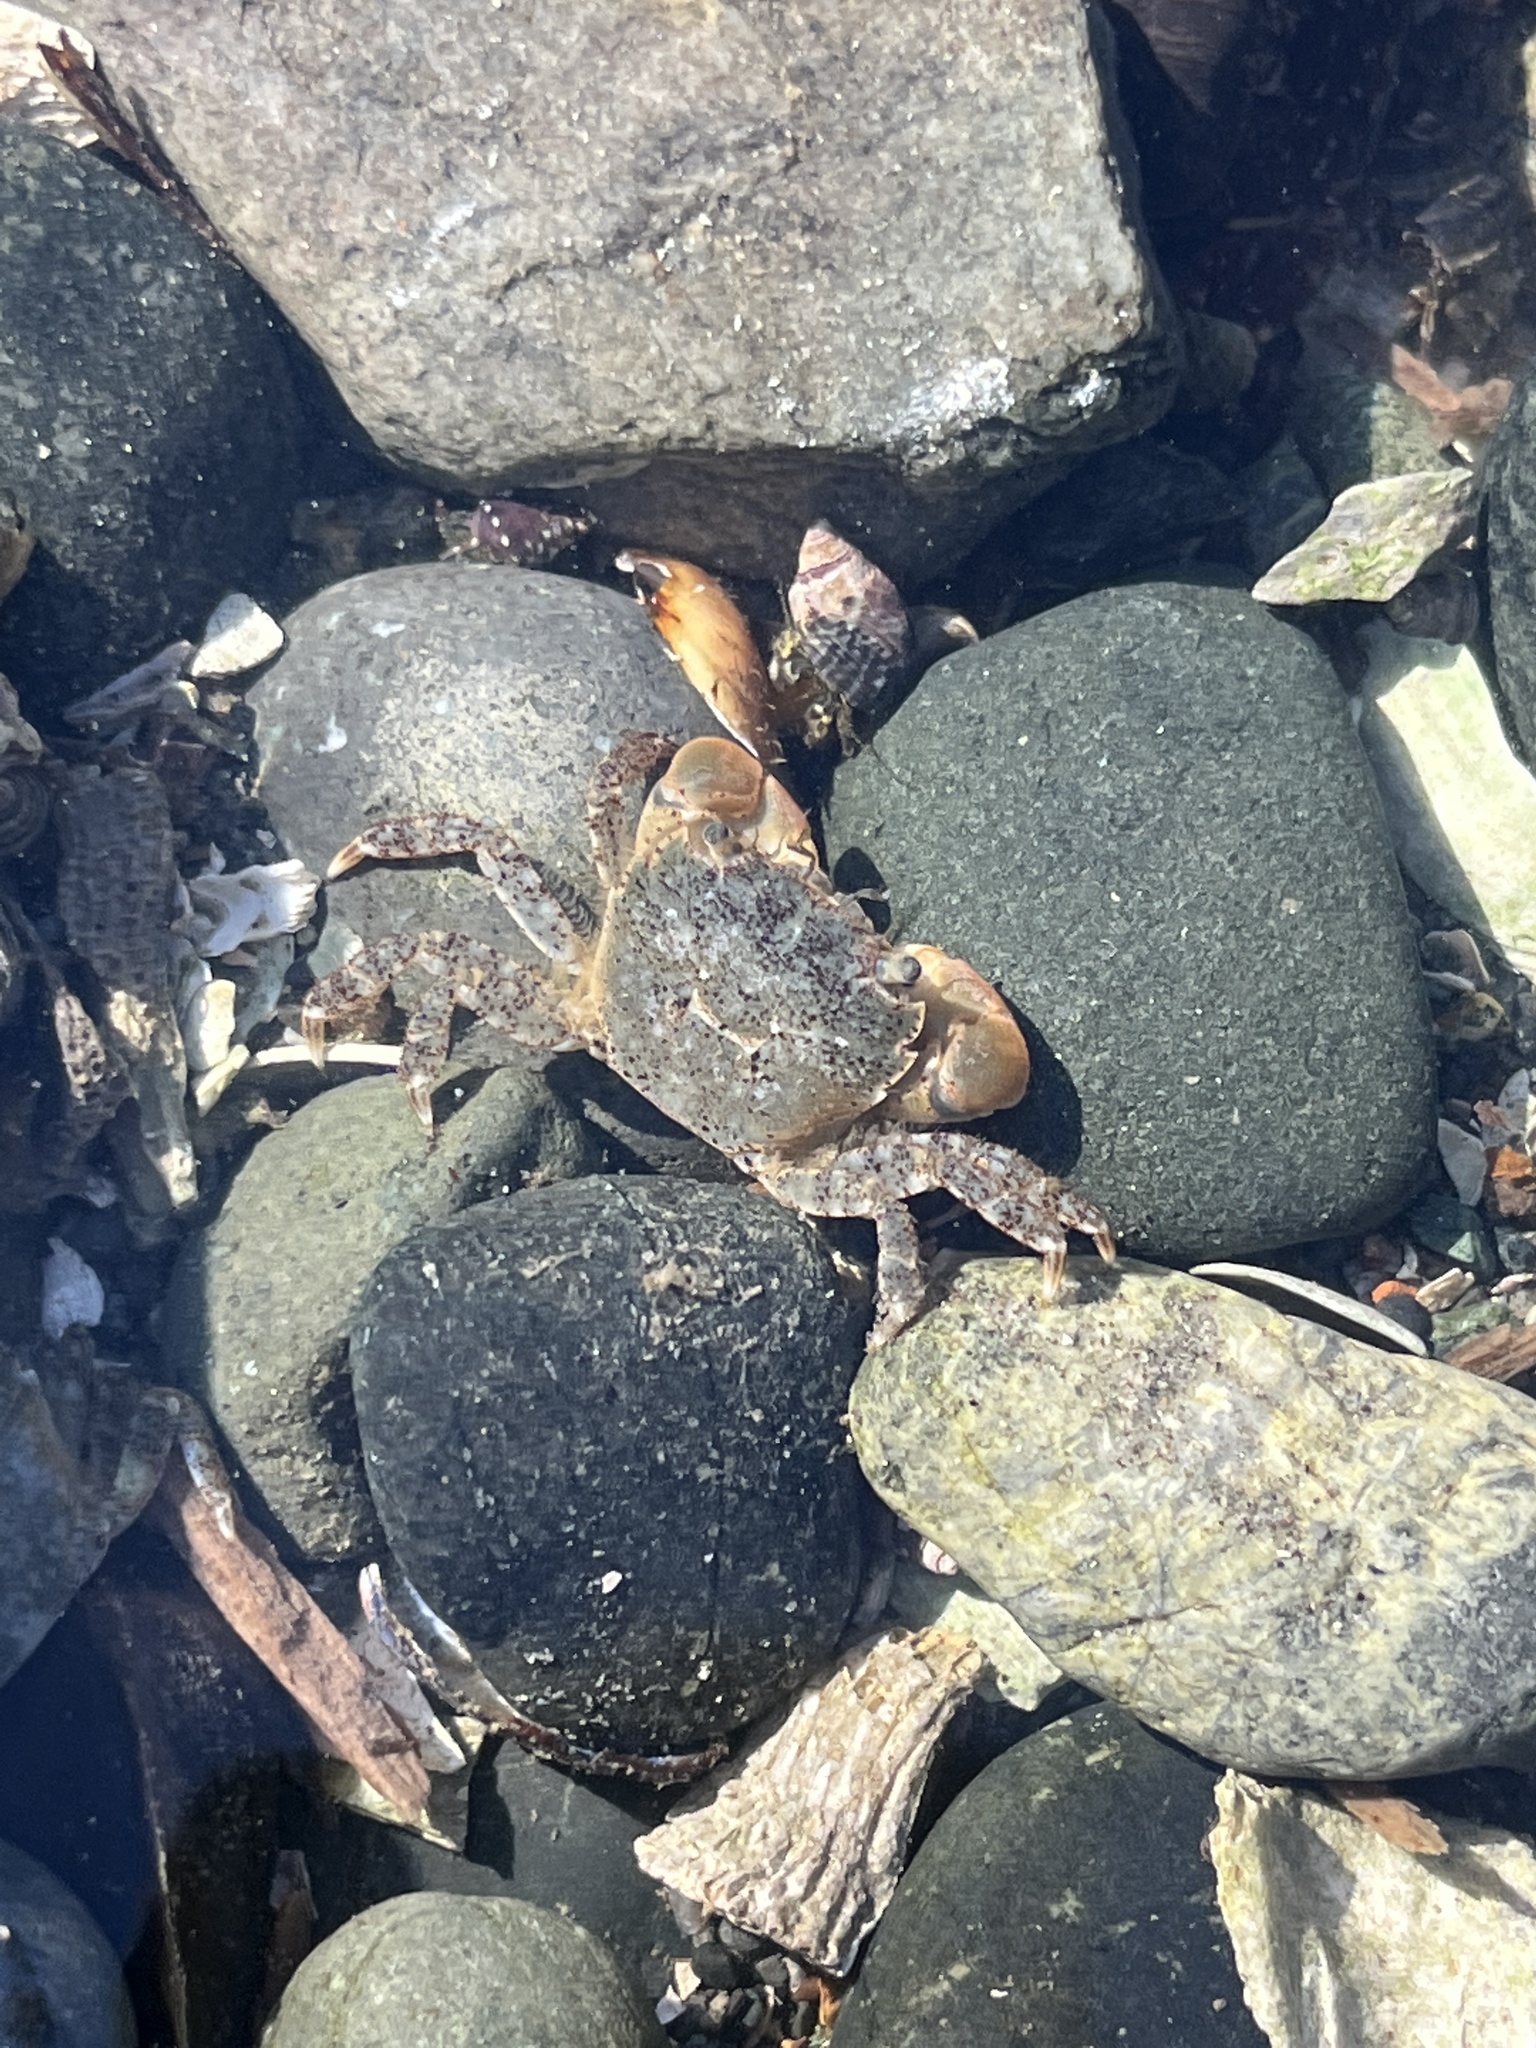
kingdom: Animalia
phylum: Arthropoda
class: Malacostraca
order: Decapoda
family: Varunidae
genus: Hemigrapsus
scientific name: Hemigrapsus oregonensis
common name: Yellow shore crab
